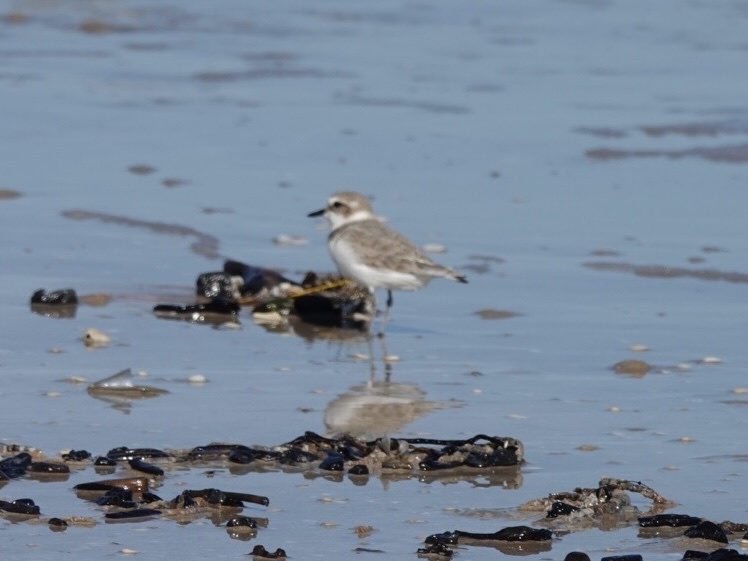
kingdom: Animalia
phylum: Chordata
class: Aves
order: Charadriiformes
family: Charadriidae
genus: Anarhynchus
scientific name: Anarhynchus
